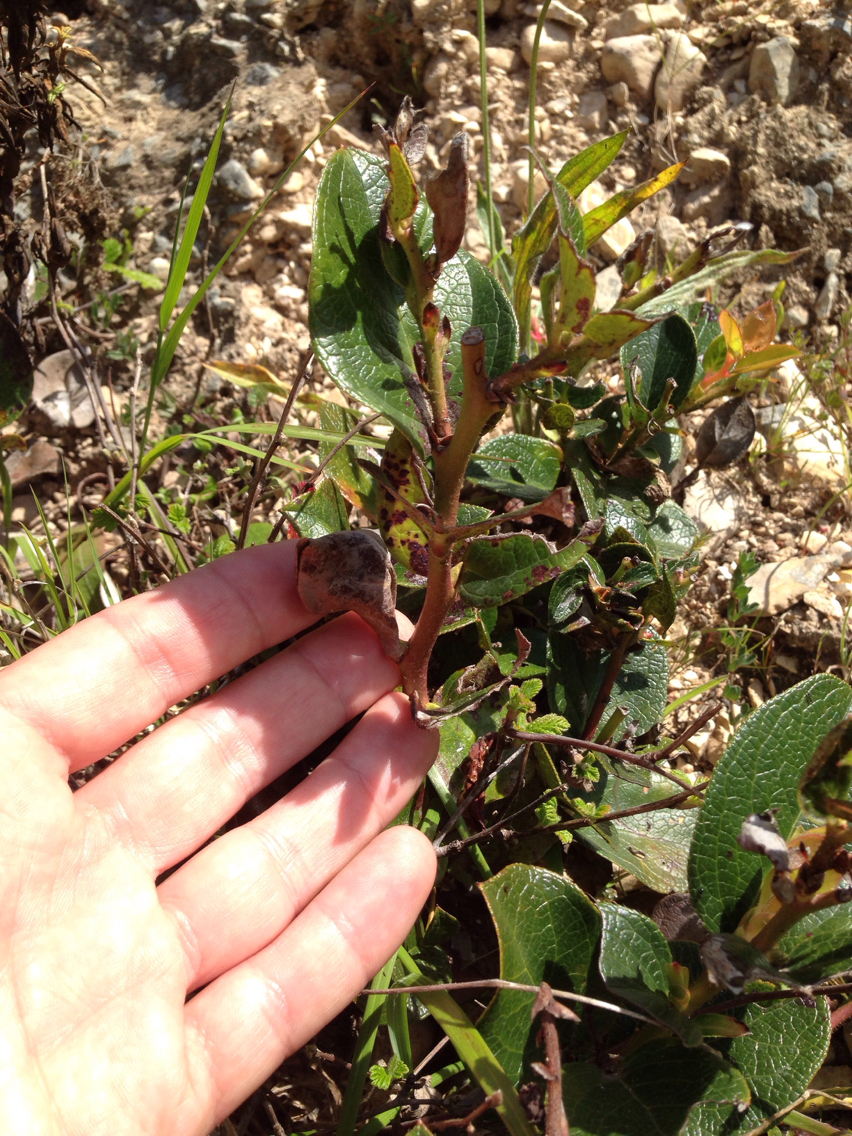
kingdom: Plantae
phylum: Tracheophyta
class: Magnoliopsida
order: Ericales
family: Ericaceae
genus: Gaultheria
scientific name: Gaultheria shallon
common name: Shallon
